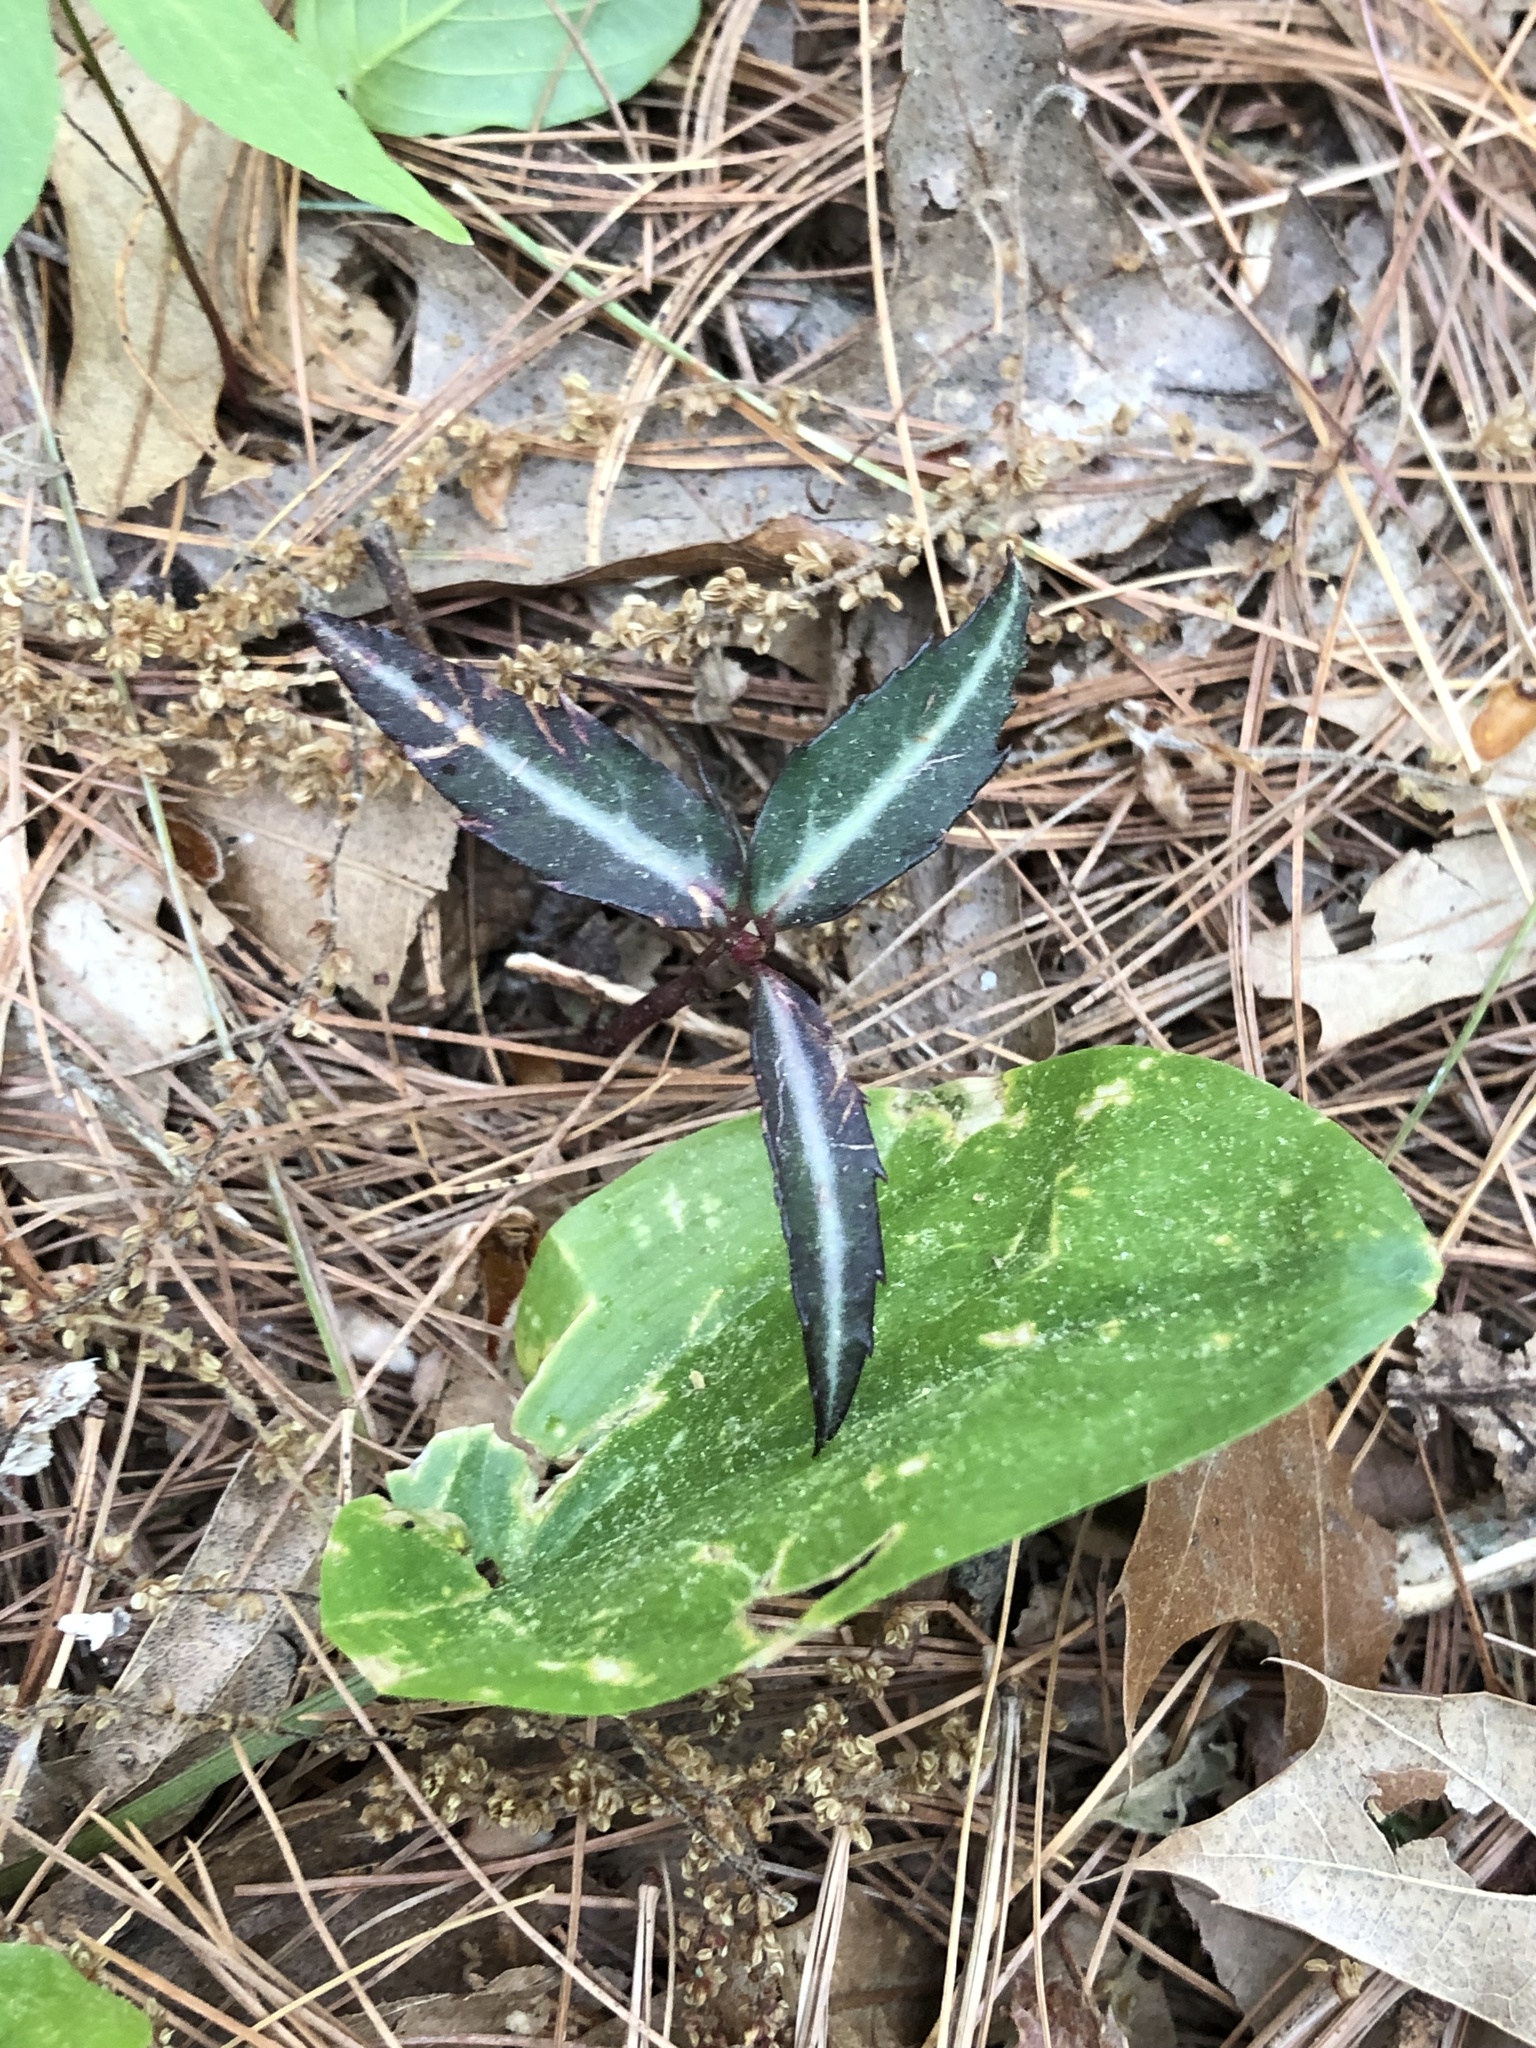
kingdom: Plantae
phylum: Tracheophyta
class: Magnoliopsida
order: Ericales
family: Ericaceae
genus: Chimaphila
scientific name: Chimaphila maculata
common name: Spotted pipsissewa
